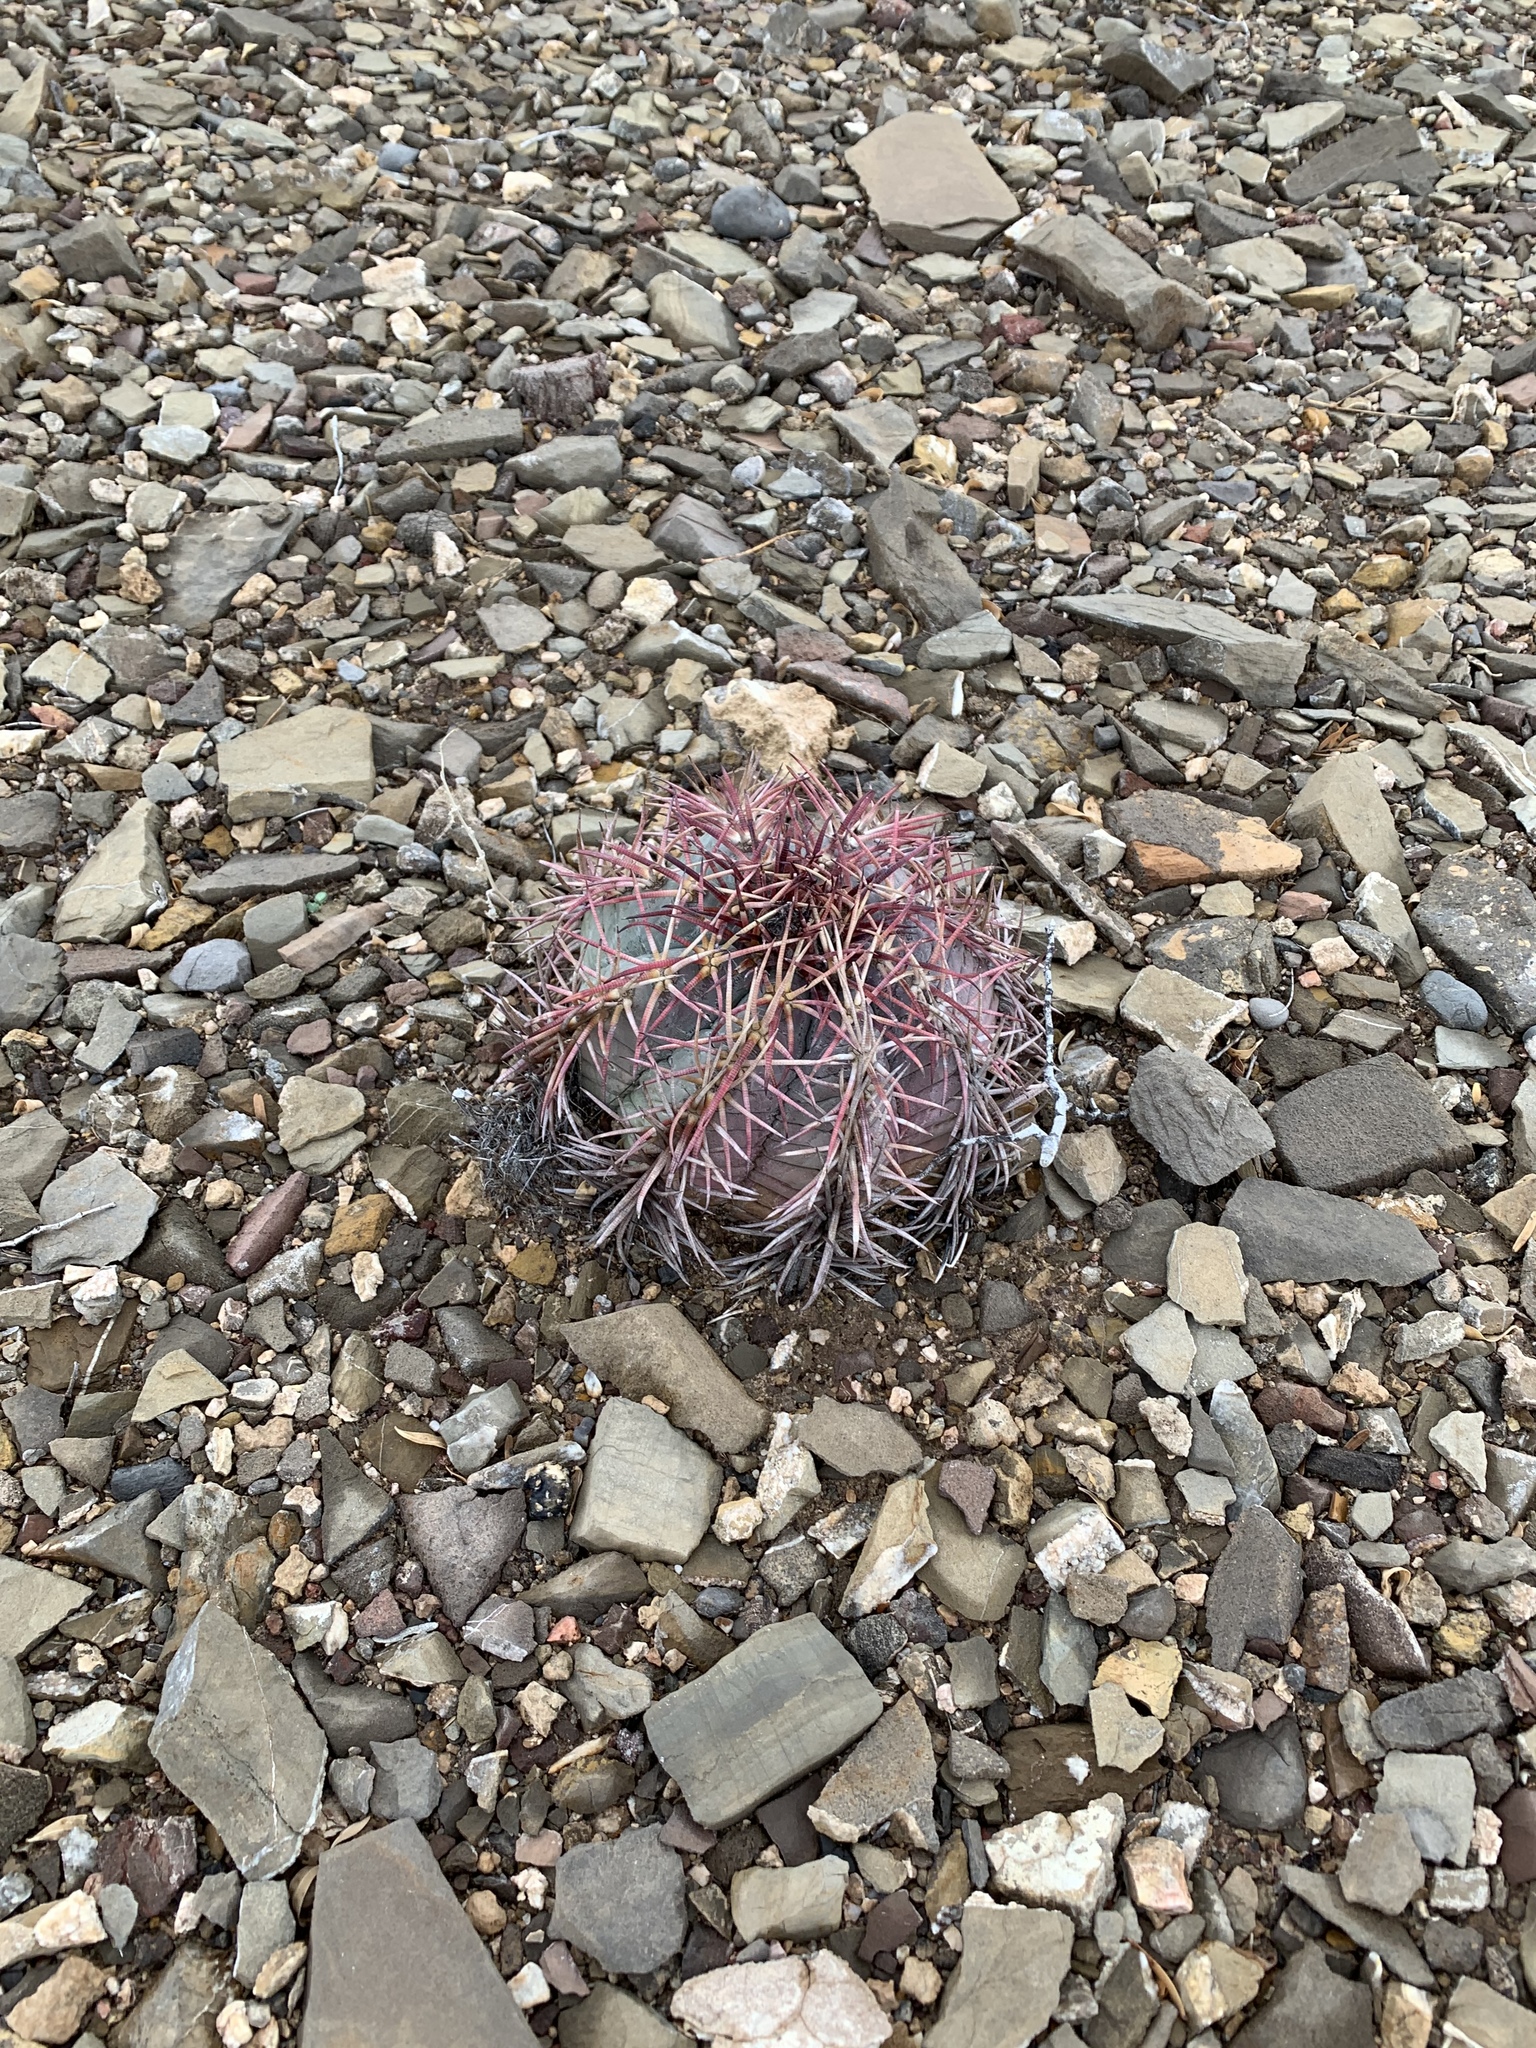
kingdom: Plantae
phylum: Tracheophyta
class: Magnoliopsida
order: Caryophyllales
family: Cactaceae
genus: Echinocactus
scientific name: Echinocactus horizonthalonius
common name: Devilshead
